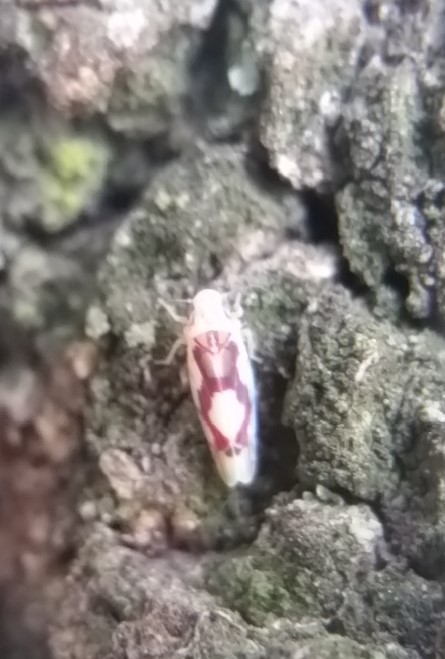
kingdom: Animalia
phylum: Arthropoda
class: Insecta
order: Hemiptera
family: Cicadellidae
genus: Eratoneura
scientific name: Eratoneura ligata
